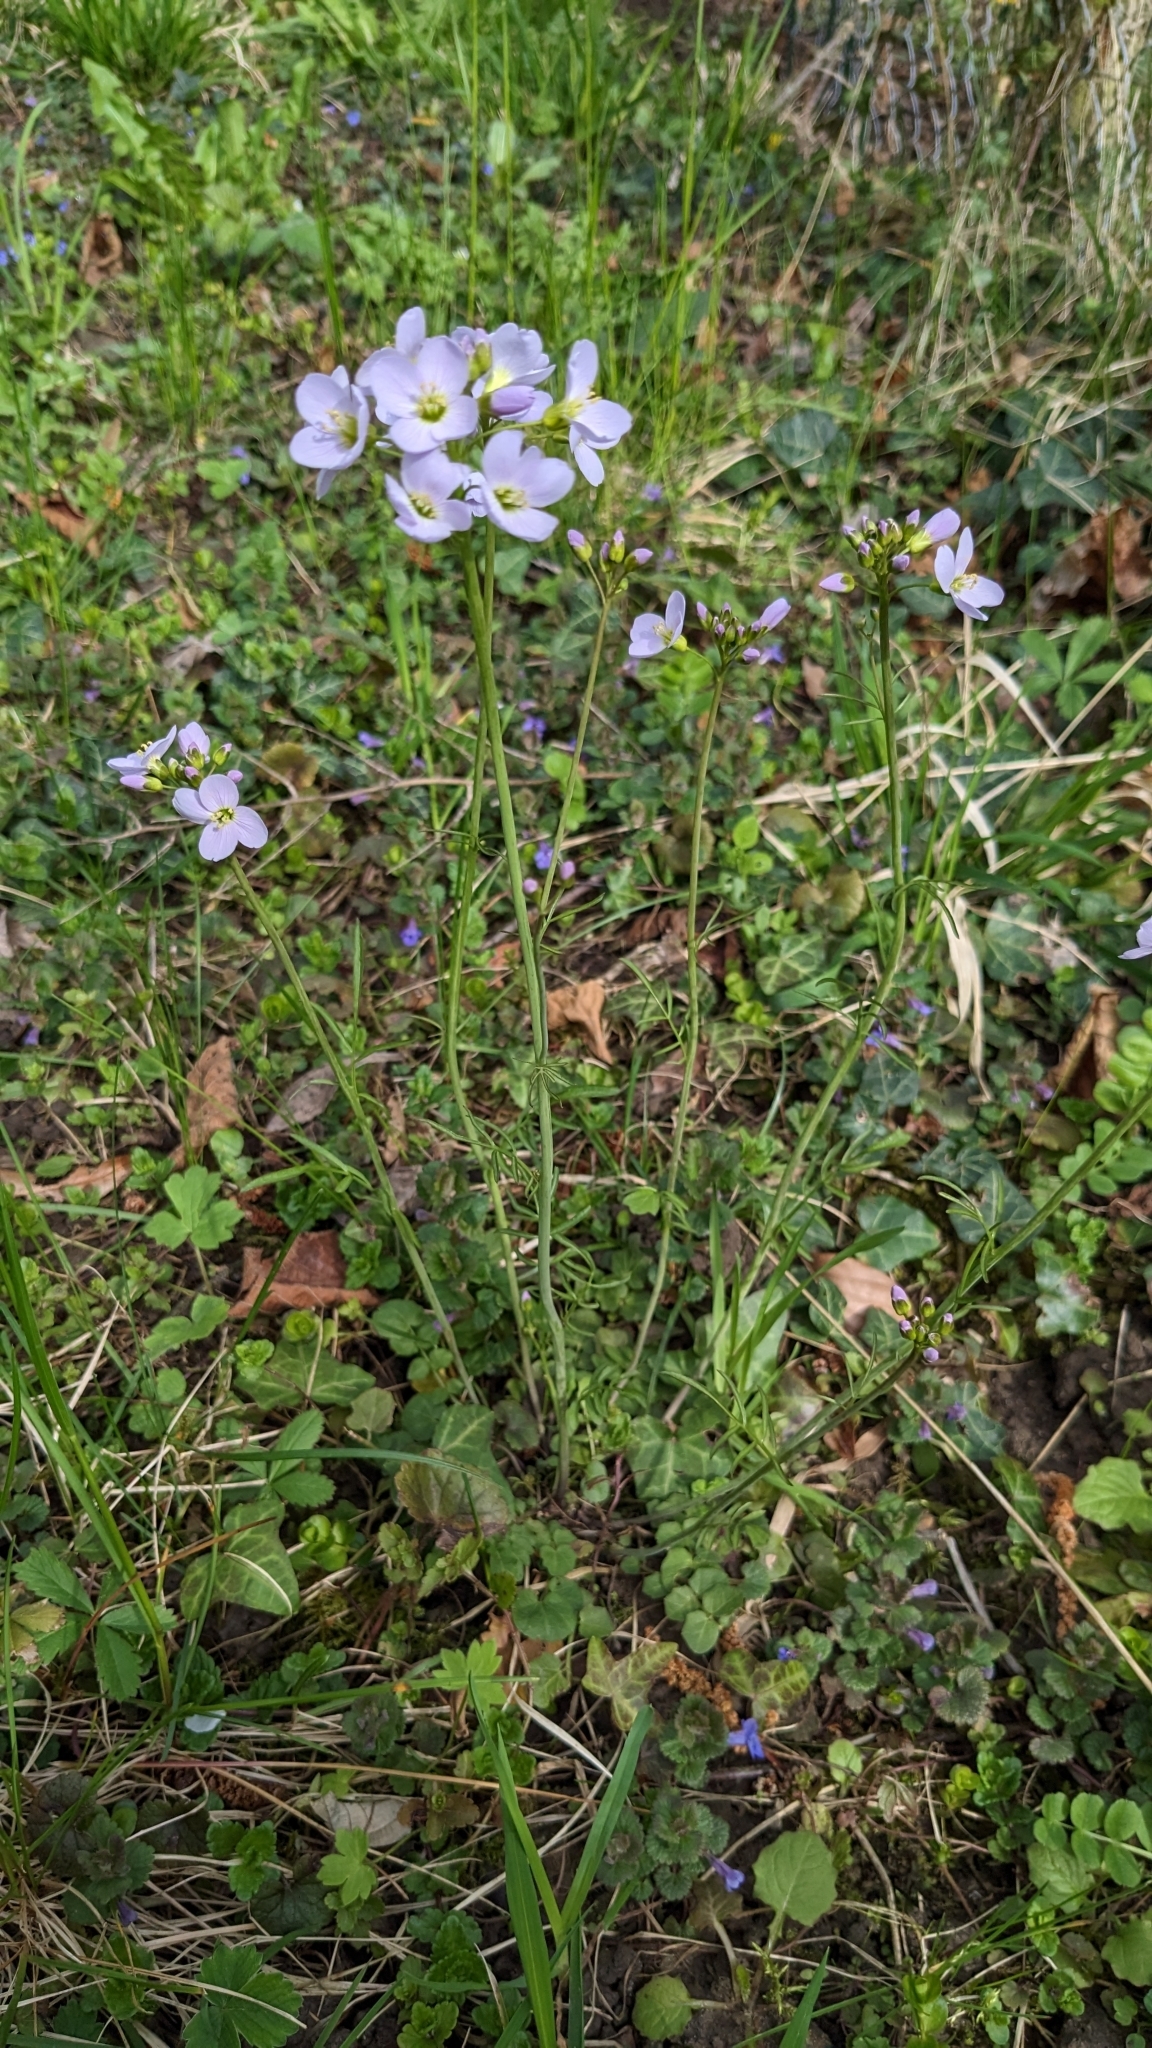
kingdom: Plantae
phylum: Tracheophyta
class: Magnoliopsida
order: Brassicales
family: Brassicaceae
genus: Cardamine
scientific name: Cardamine pratensis
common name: Cuckoo flower
